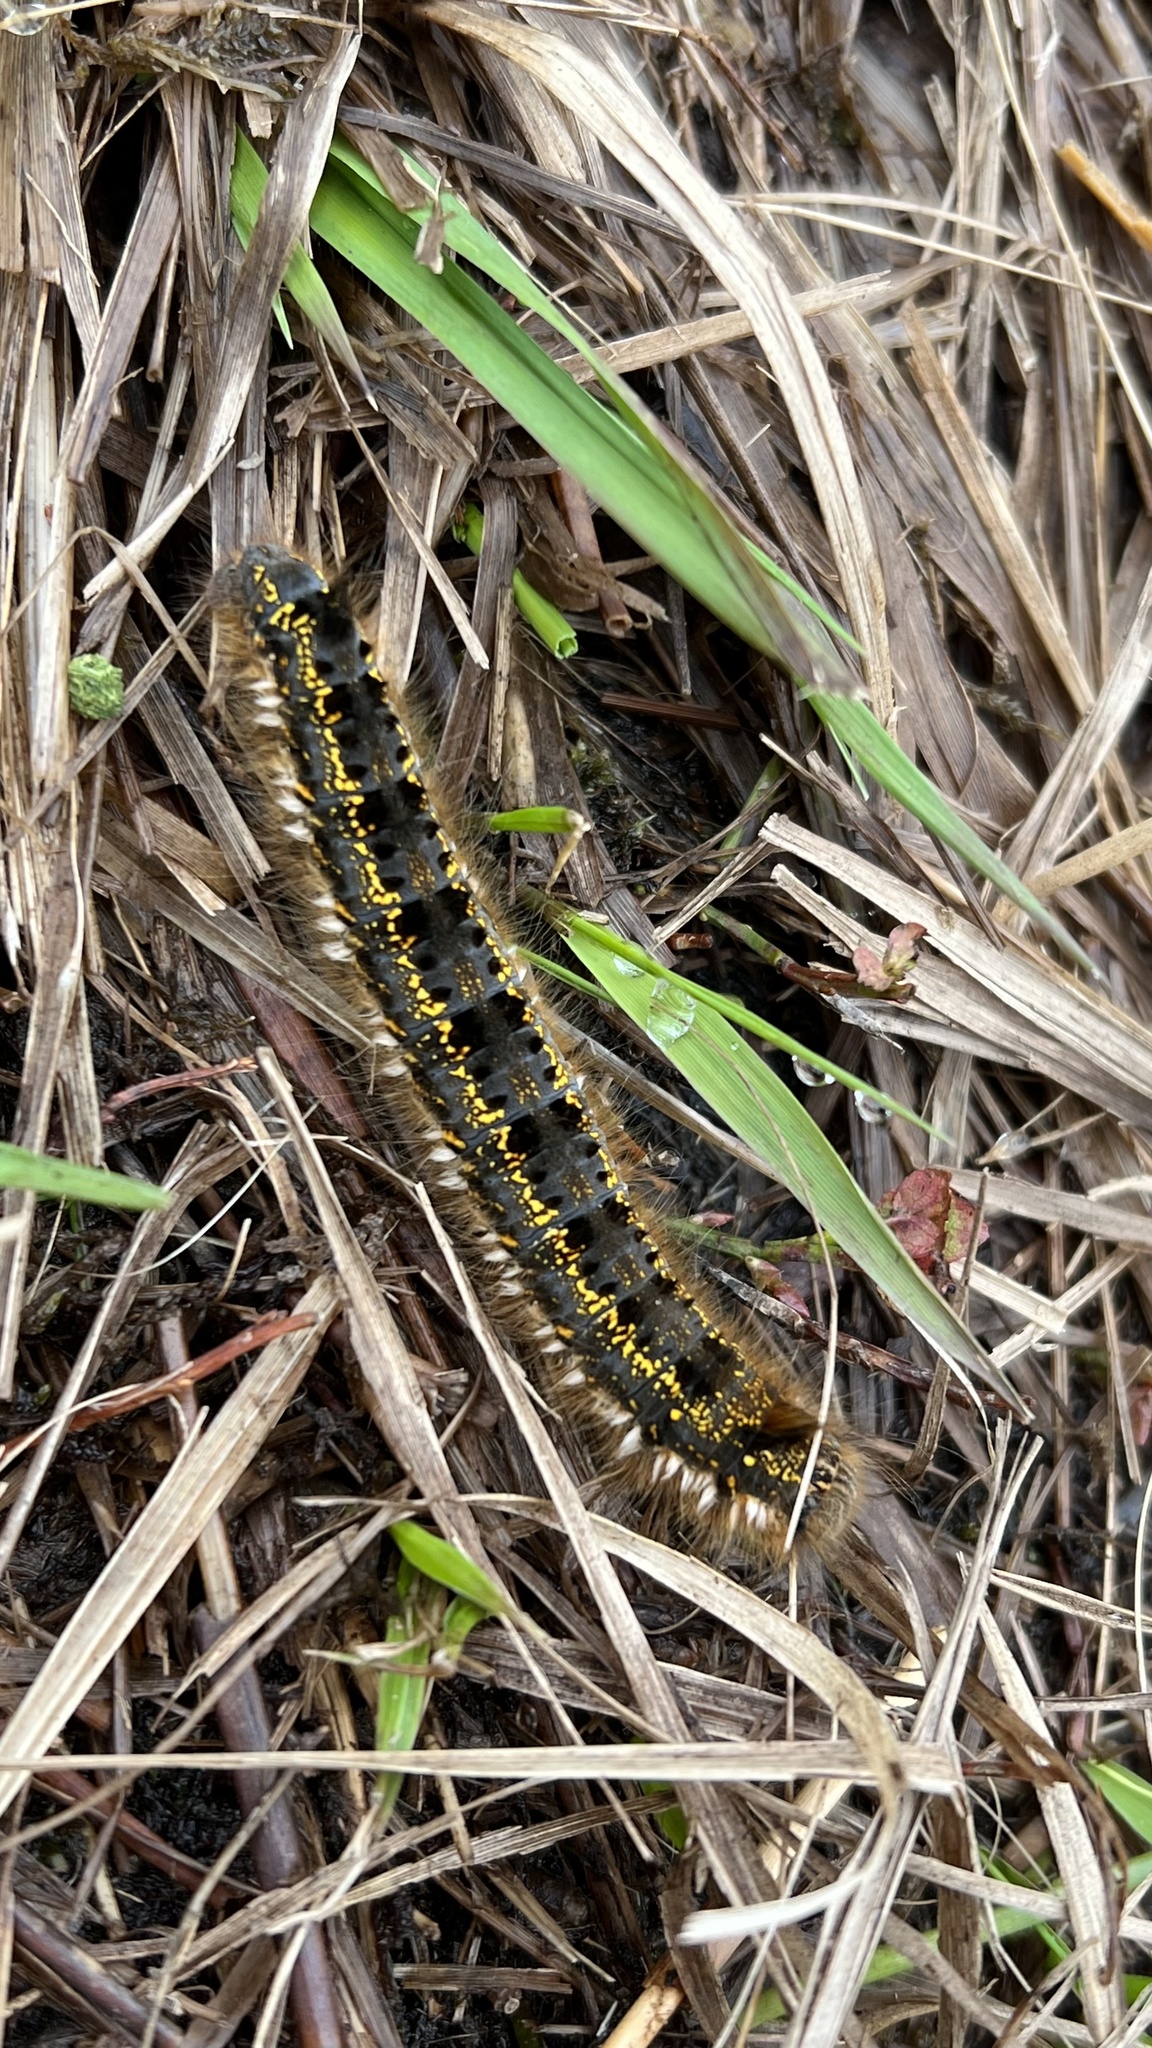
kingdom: Animalia
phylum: Arthropoda
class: Insecta
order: Lepidoptera
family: Lasiocampidae
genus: Euthrix
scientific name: Euthrix potatoria
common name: Drinker
